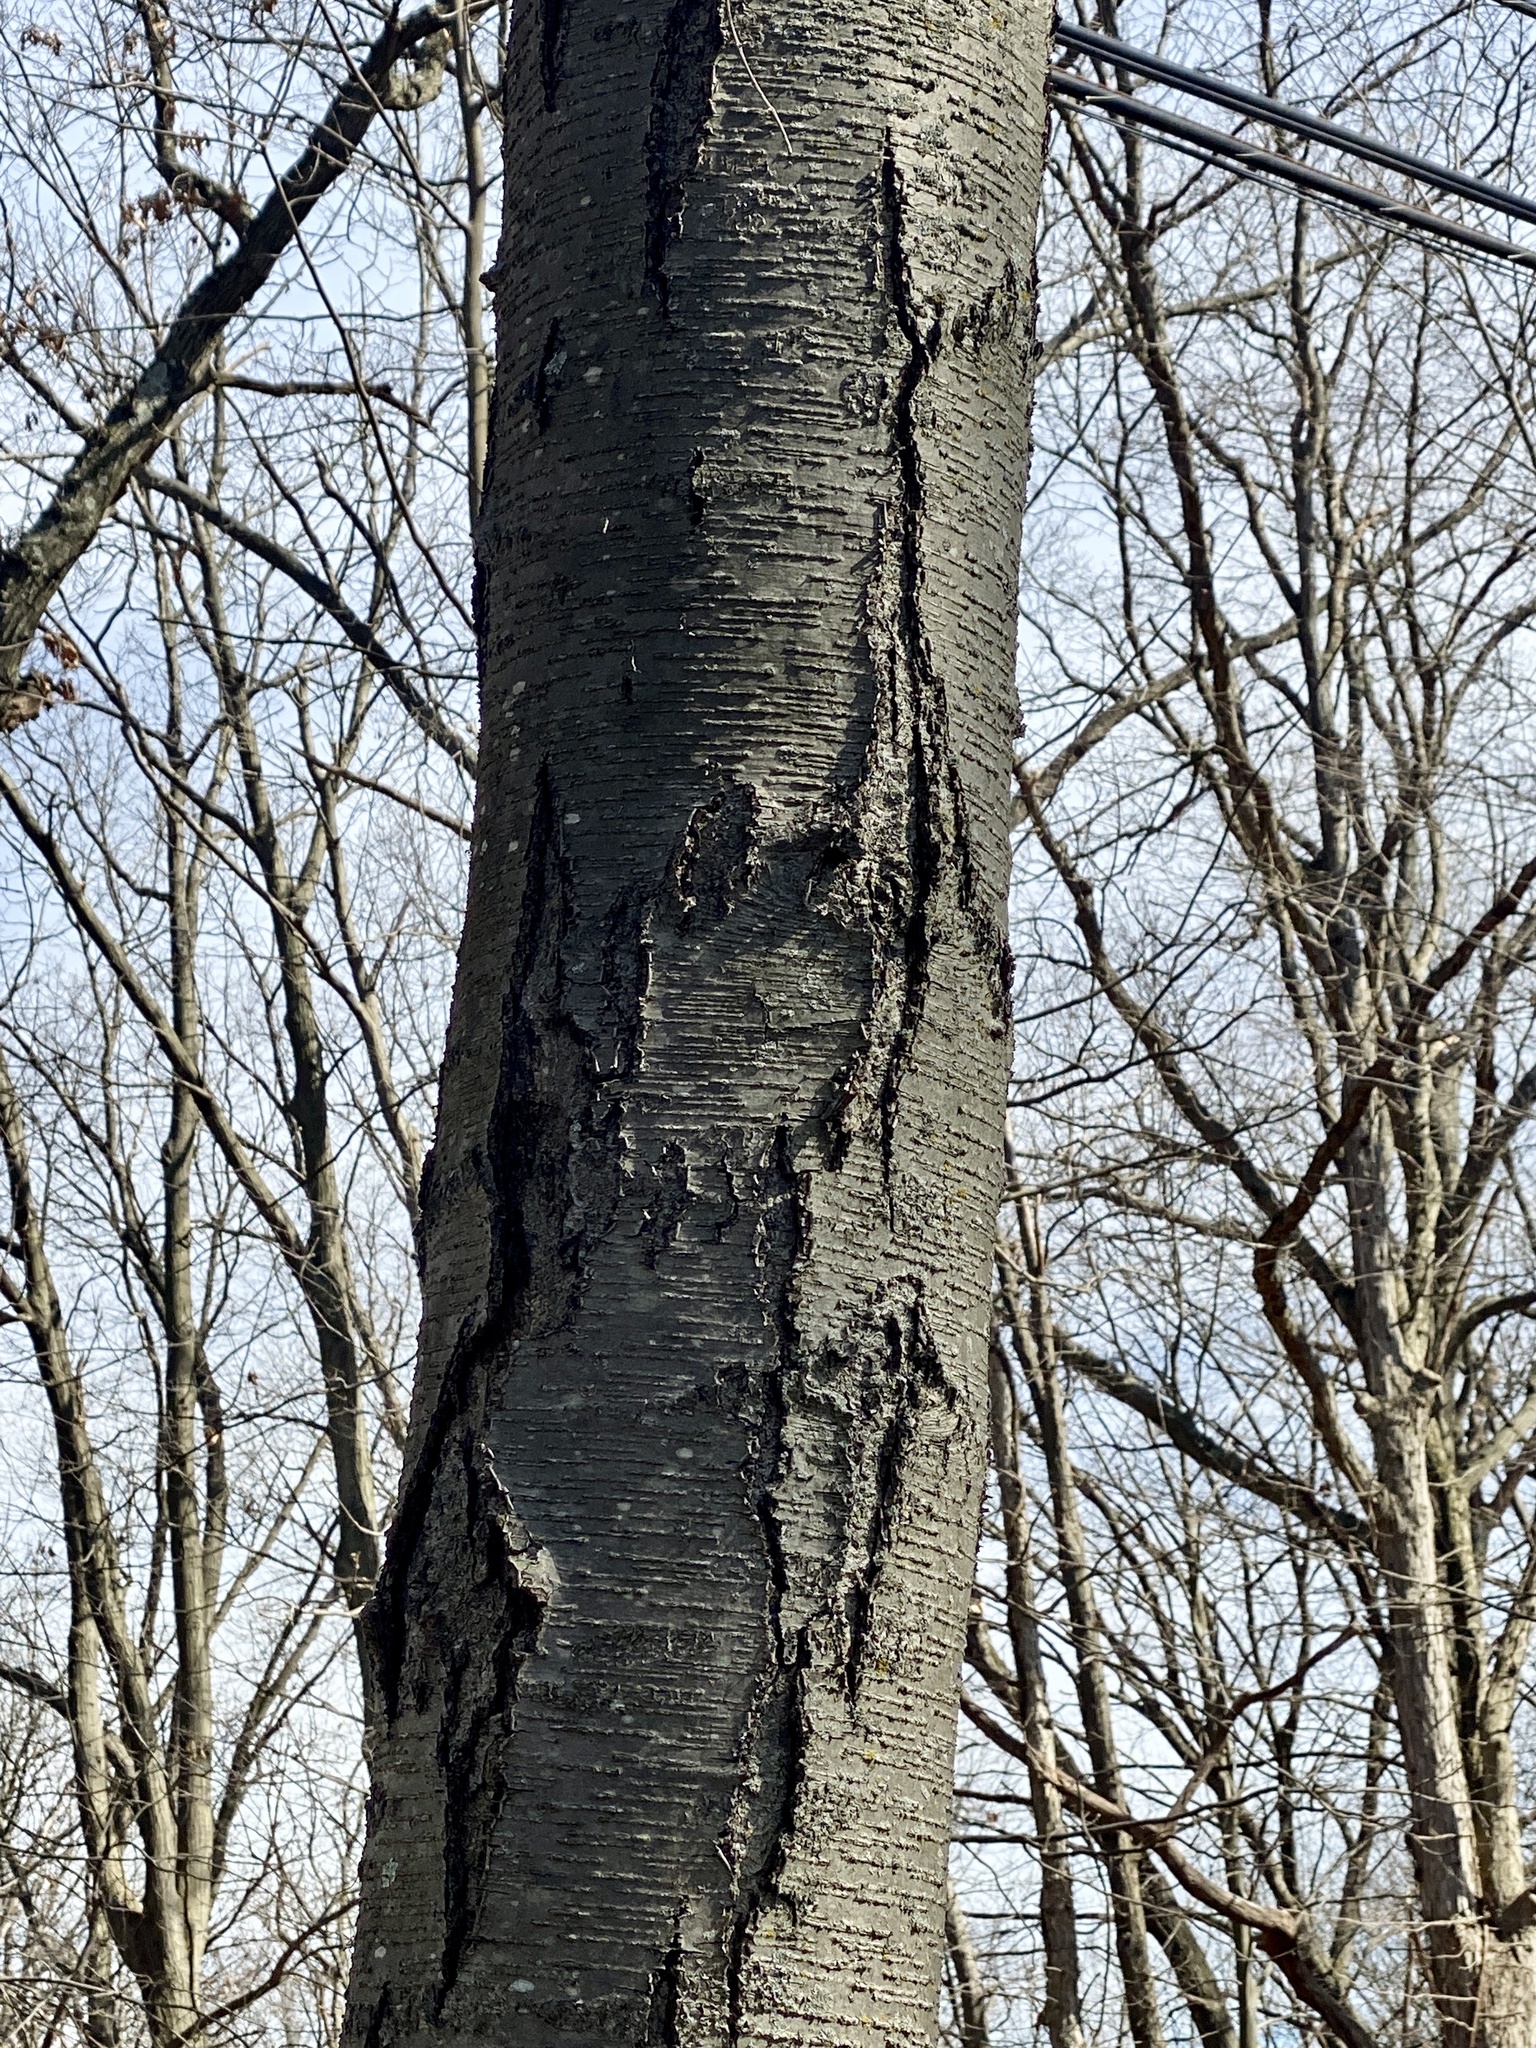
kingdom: Plantae
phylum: Tracheophyta
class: Magnoliopsida
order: Fagales
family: Betulaceae
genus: Betula
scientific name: Betula lenta
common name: Black birch
